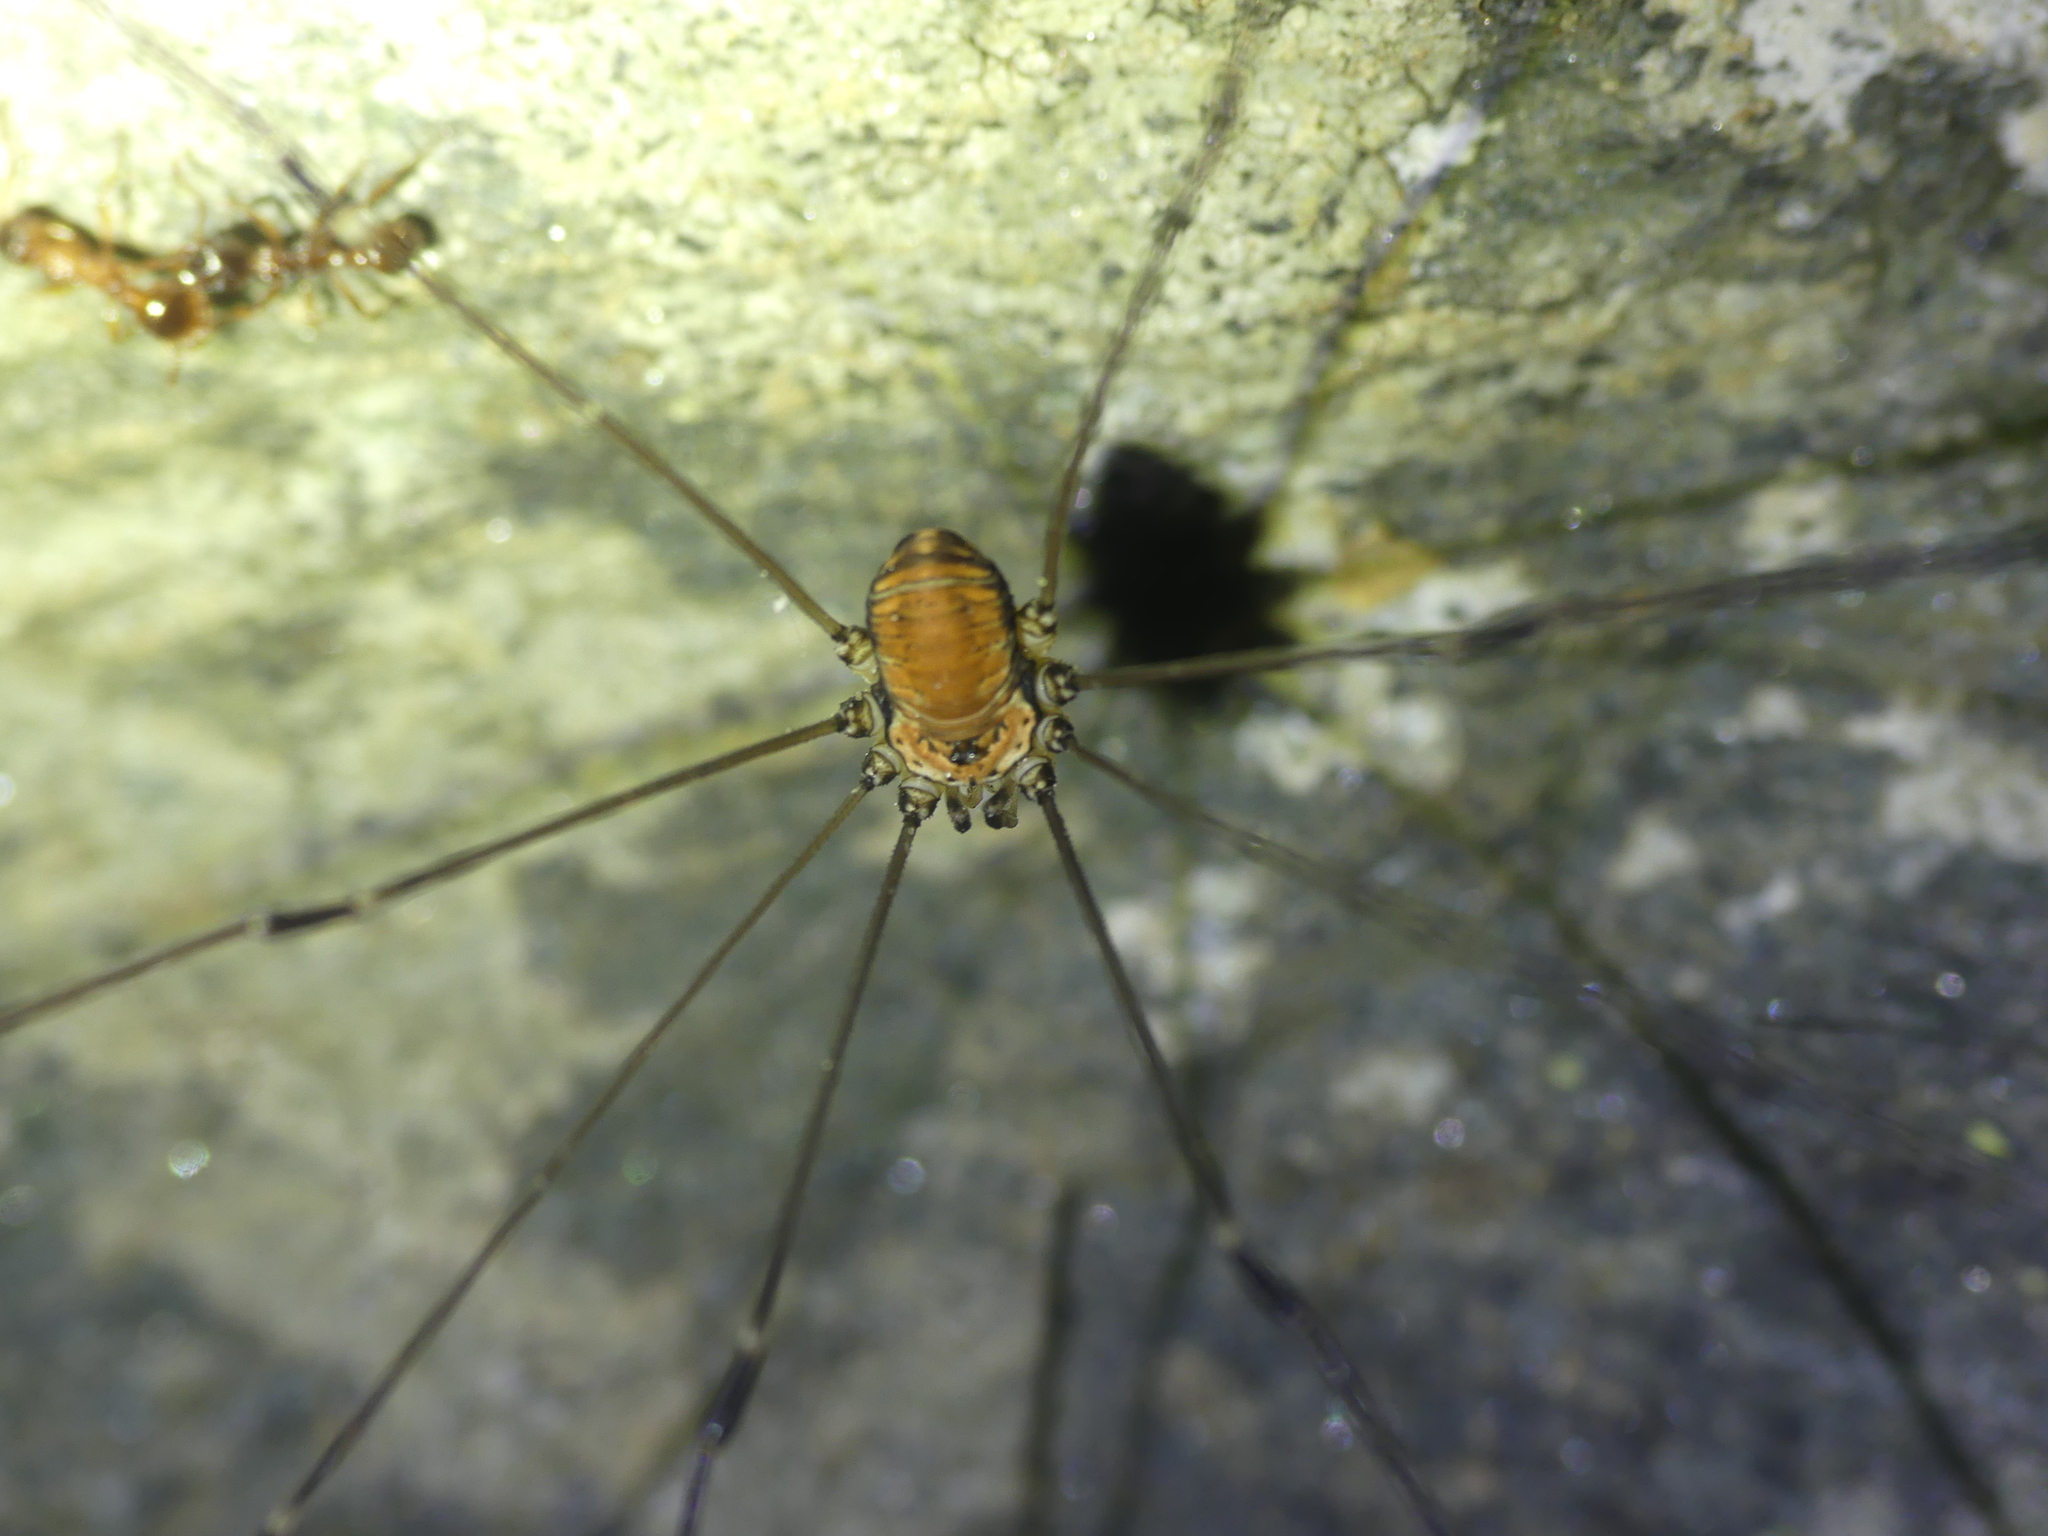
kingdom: Animalia
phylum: Arthropoda
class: Arachnida
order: Opiliones
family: Sclerosomatidae
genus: Leiobunum
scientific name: Leiobunum limbatum
